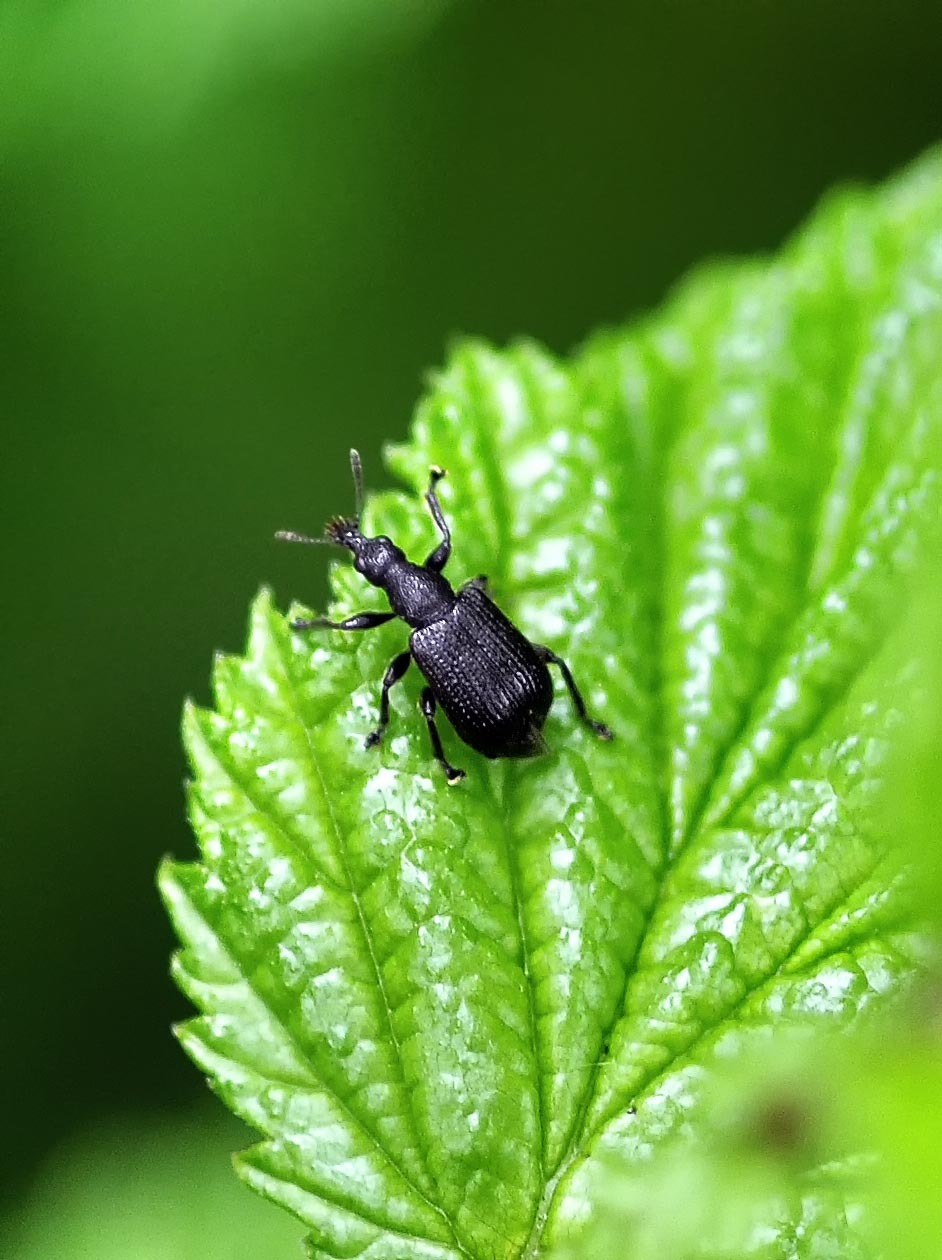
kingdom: Animalia
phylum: Arthropoda
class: Insecta
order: Coleoptera
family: Attelabidae
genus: Deporaus
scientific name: Deporaus betulae
